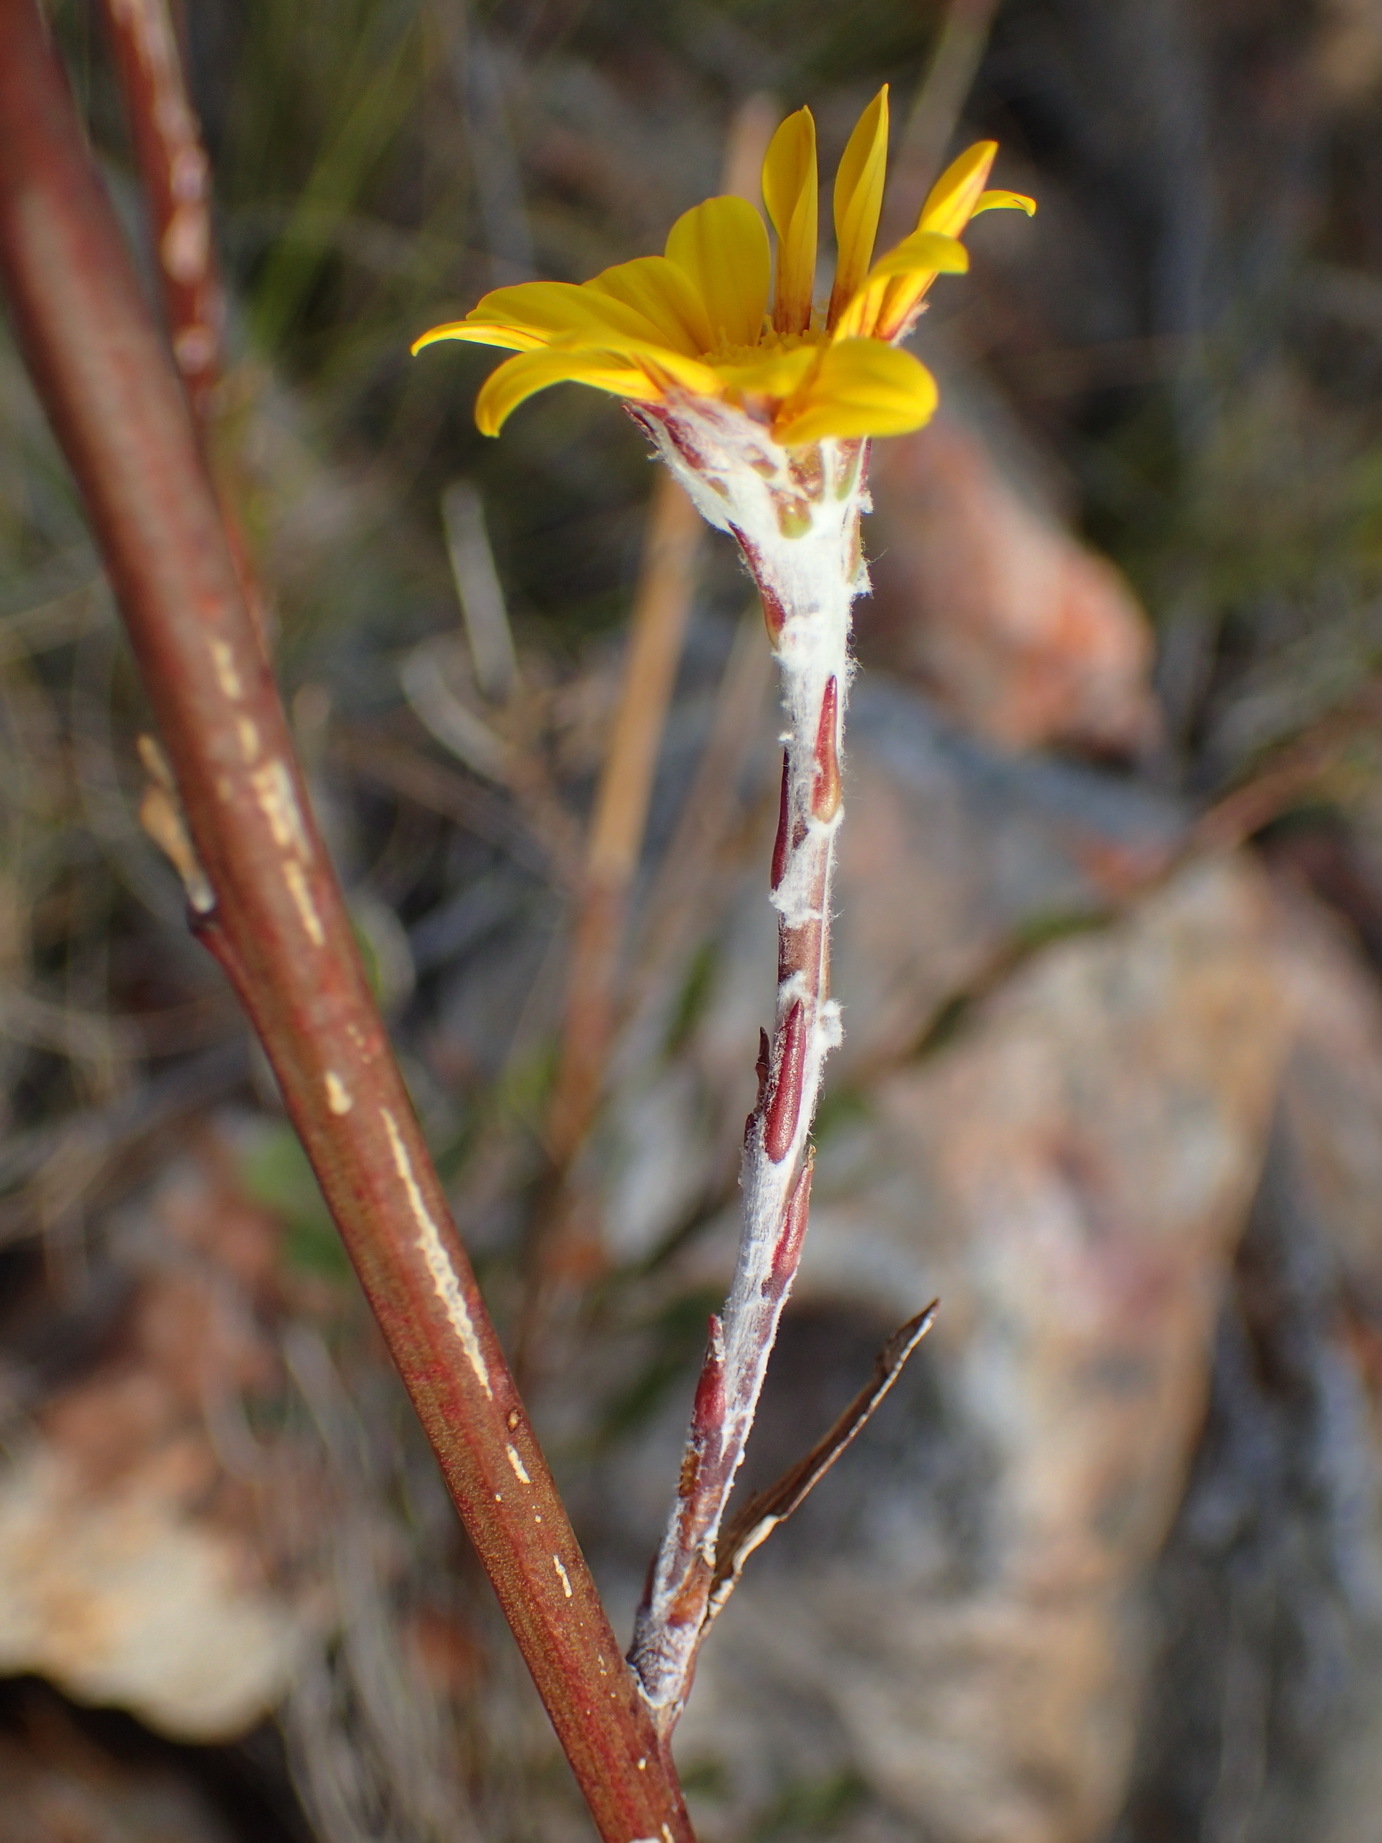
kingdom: Plantae
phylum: Tracheophyta
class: Magnoliopsida
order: Asterales
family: Asteraceae
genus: Osteospermum
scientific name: Osteospermum junceum
